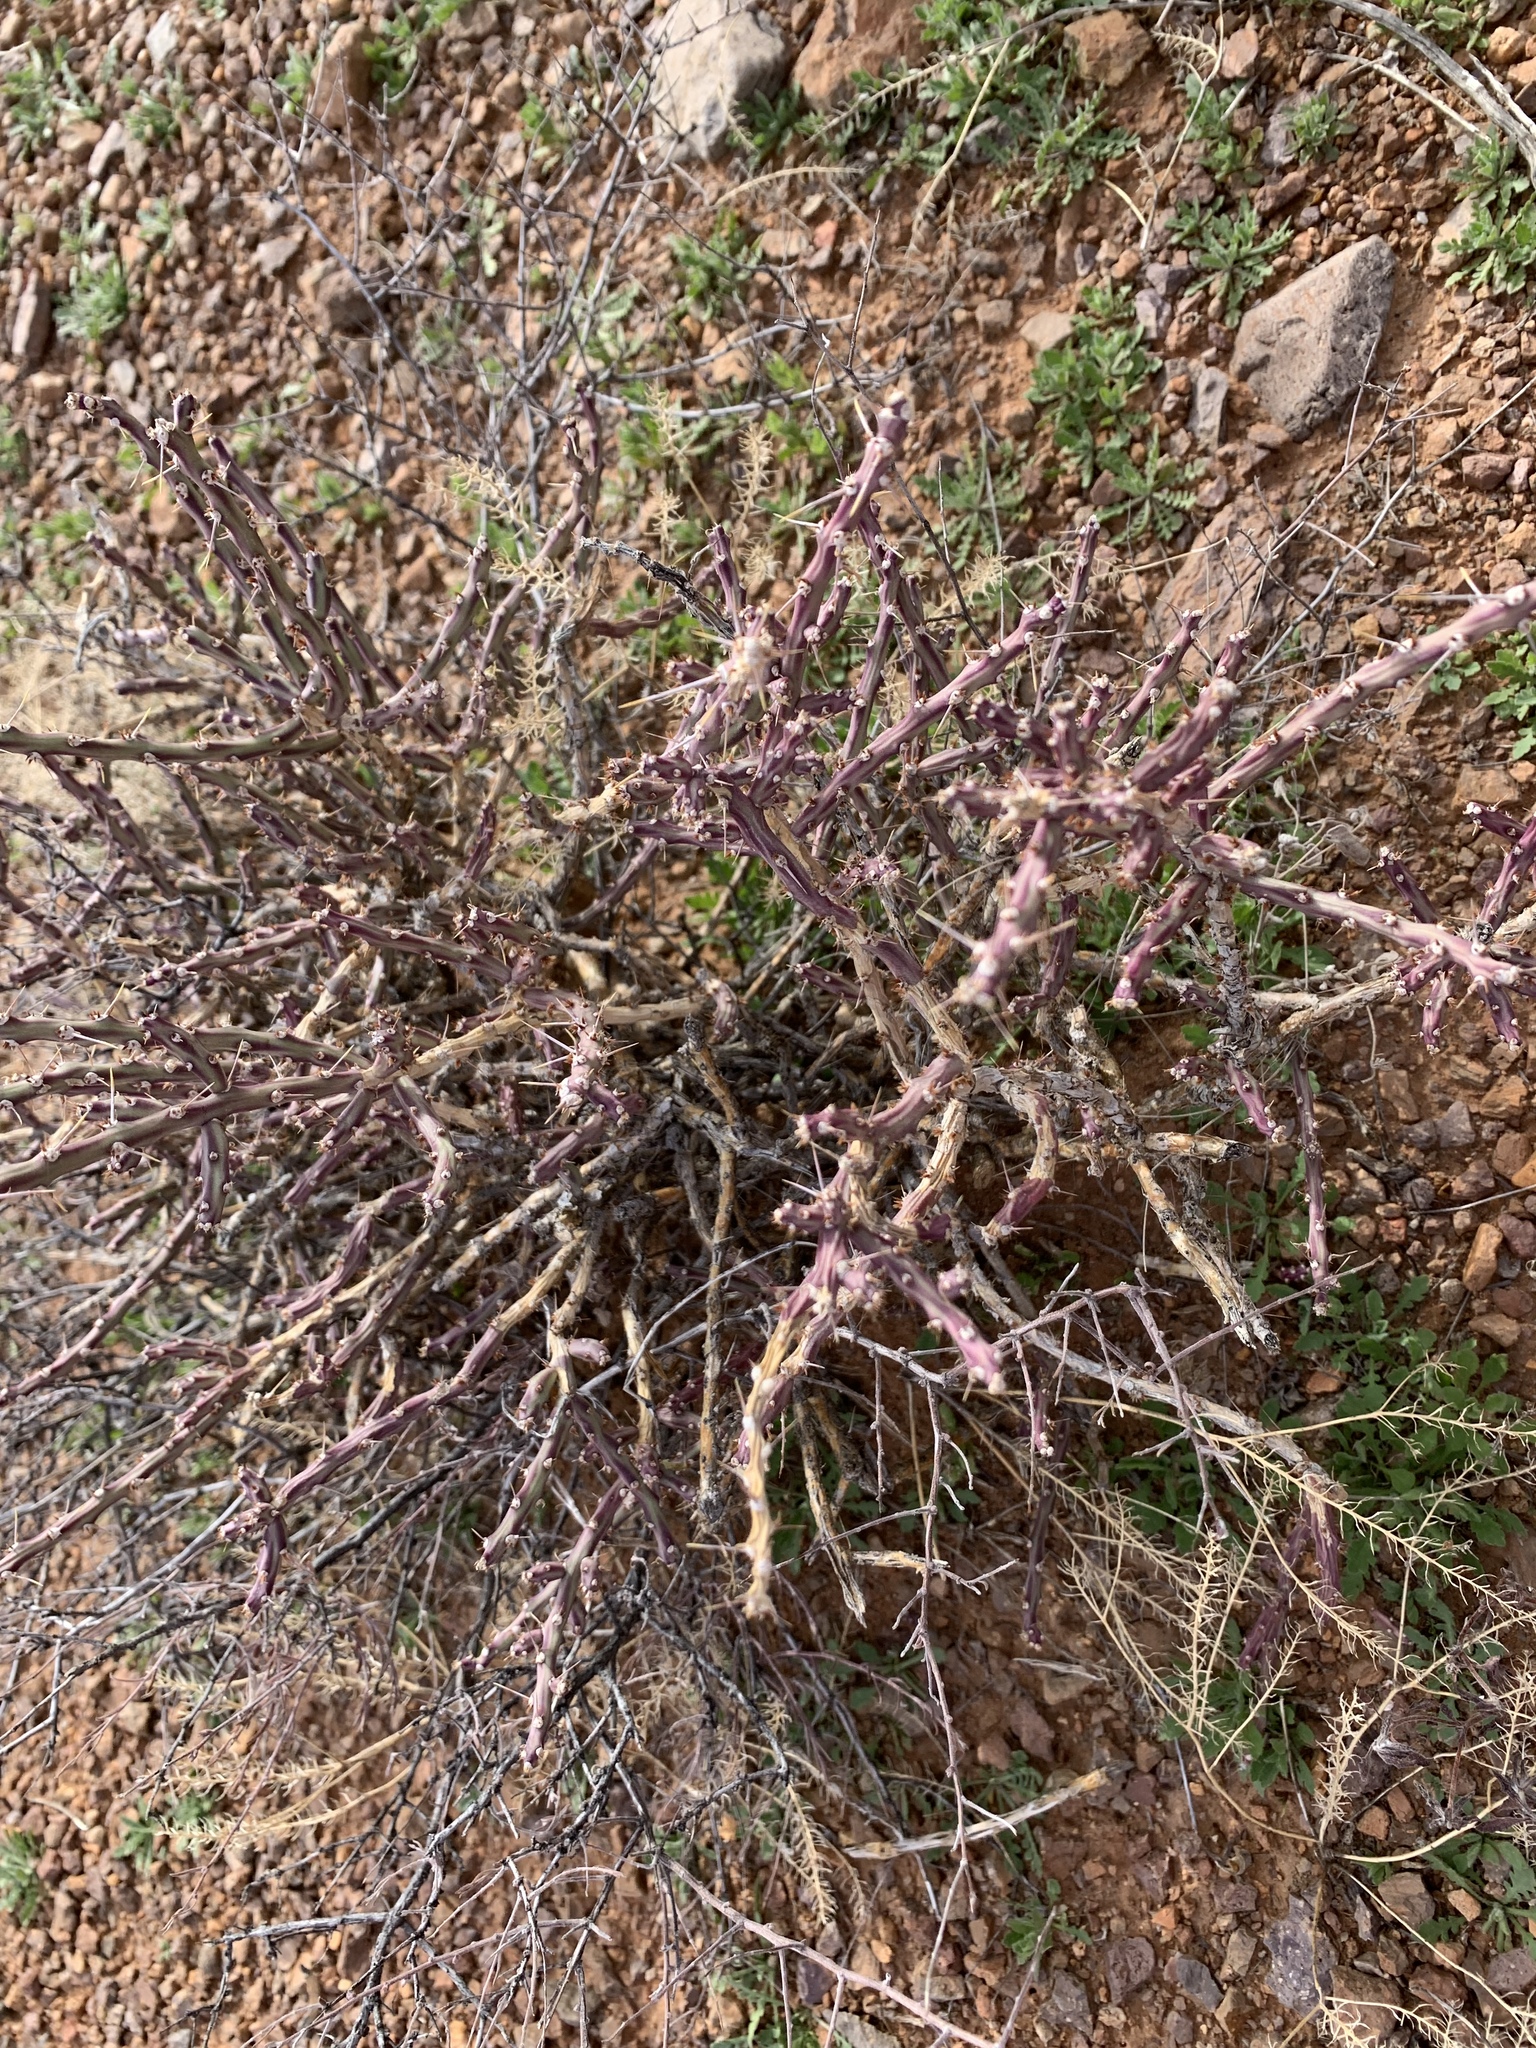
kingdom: Plantae
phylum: Tracheophyta
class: Magnoliopsida
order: Caryophyllales
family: Cactaceae
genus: Cylindropuntia
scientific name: Cylindropuntia leptocaulis
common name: Christmas cactus
